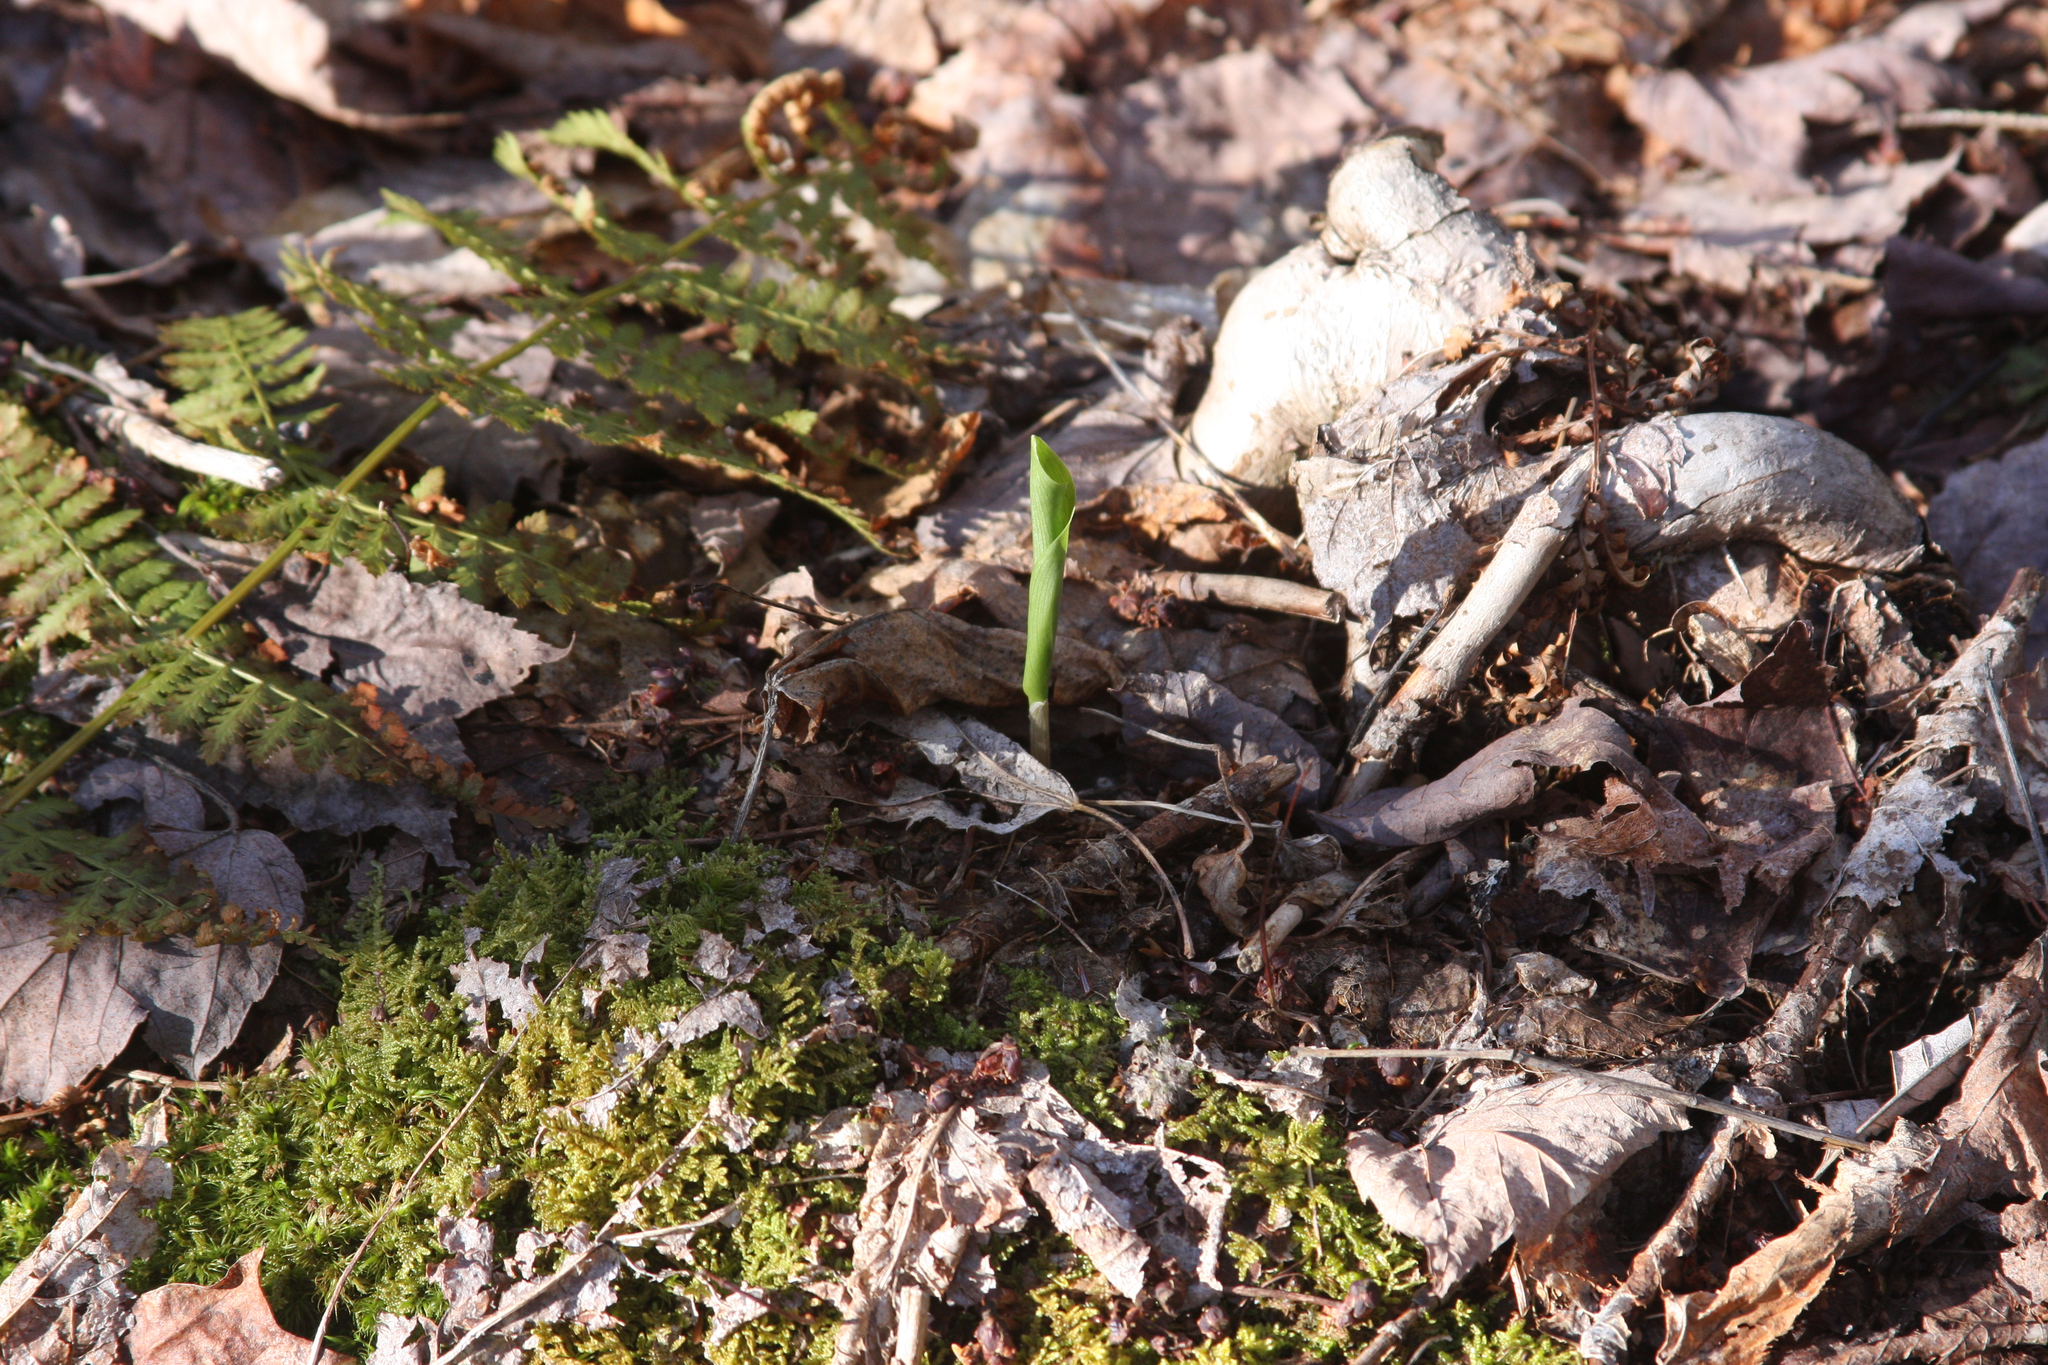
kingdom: Plantae
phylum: Tracheophyta
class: Liliopsida
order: Asparagales
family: Asparagaceae
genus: Maianthemum
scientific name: Maianthemum canadense
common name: False lily-of-the-valley
